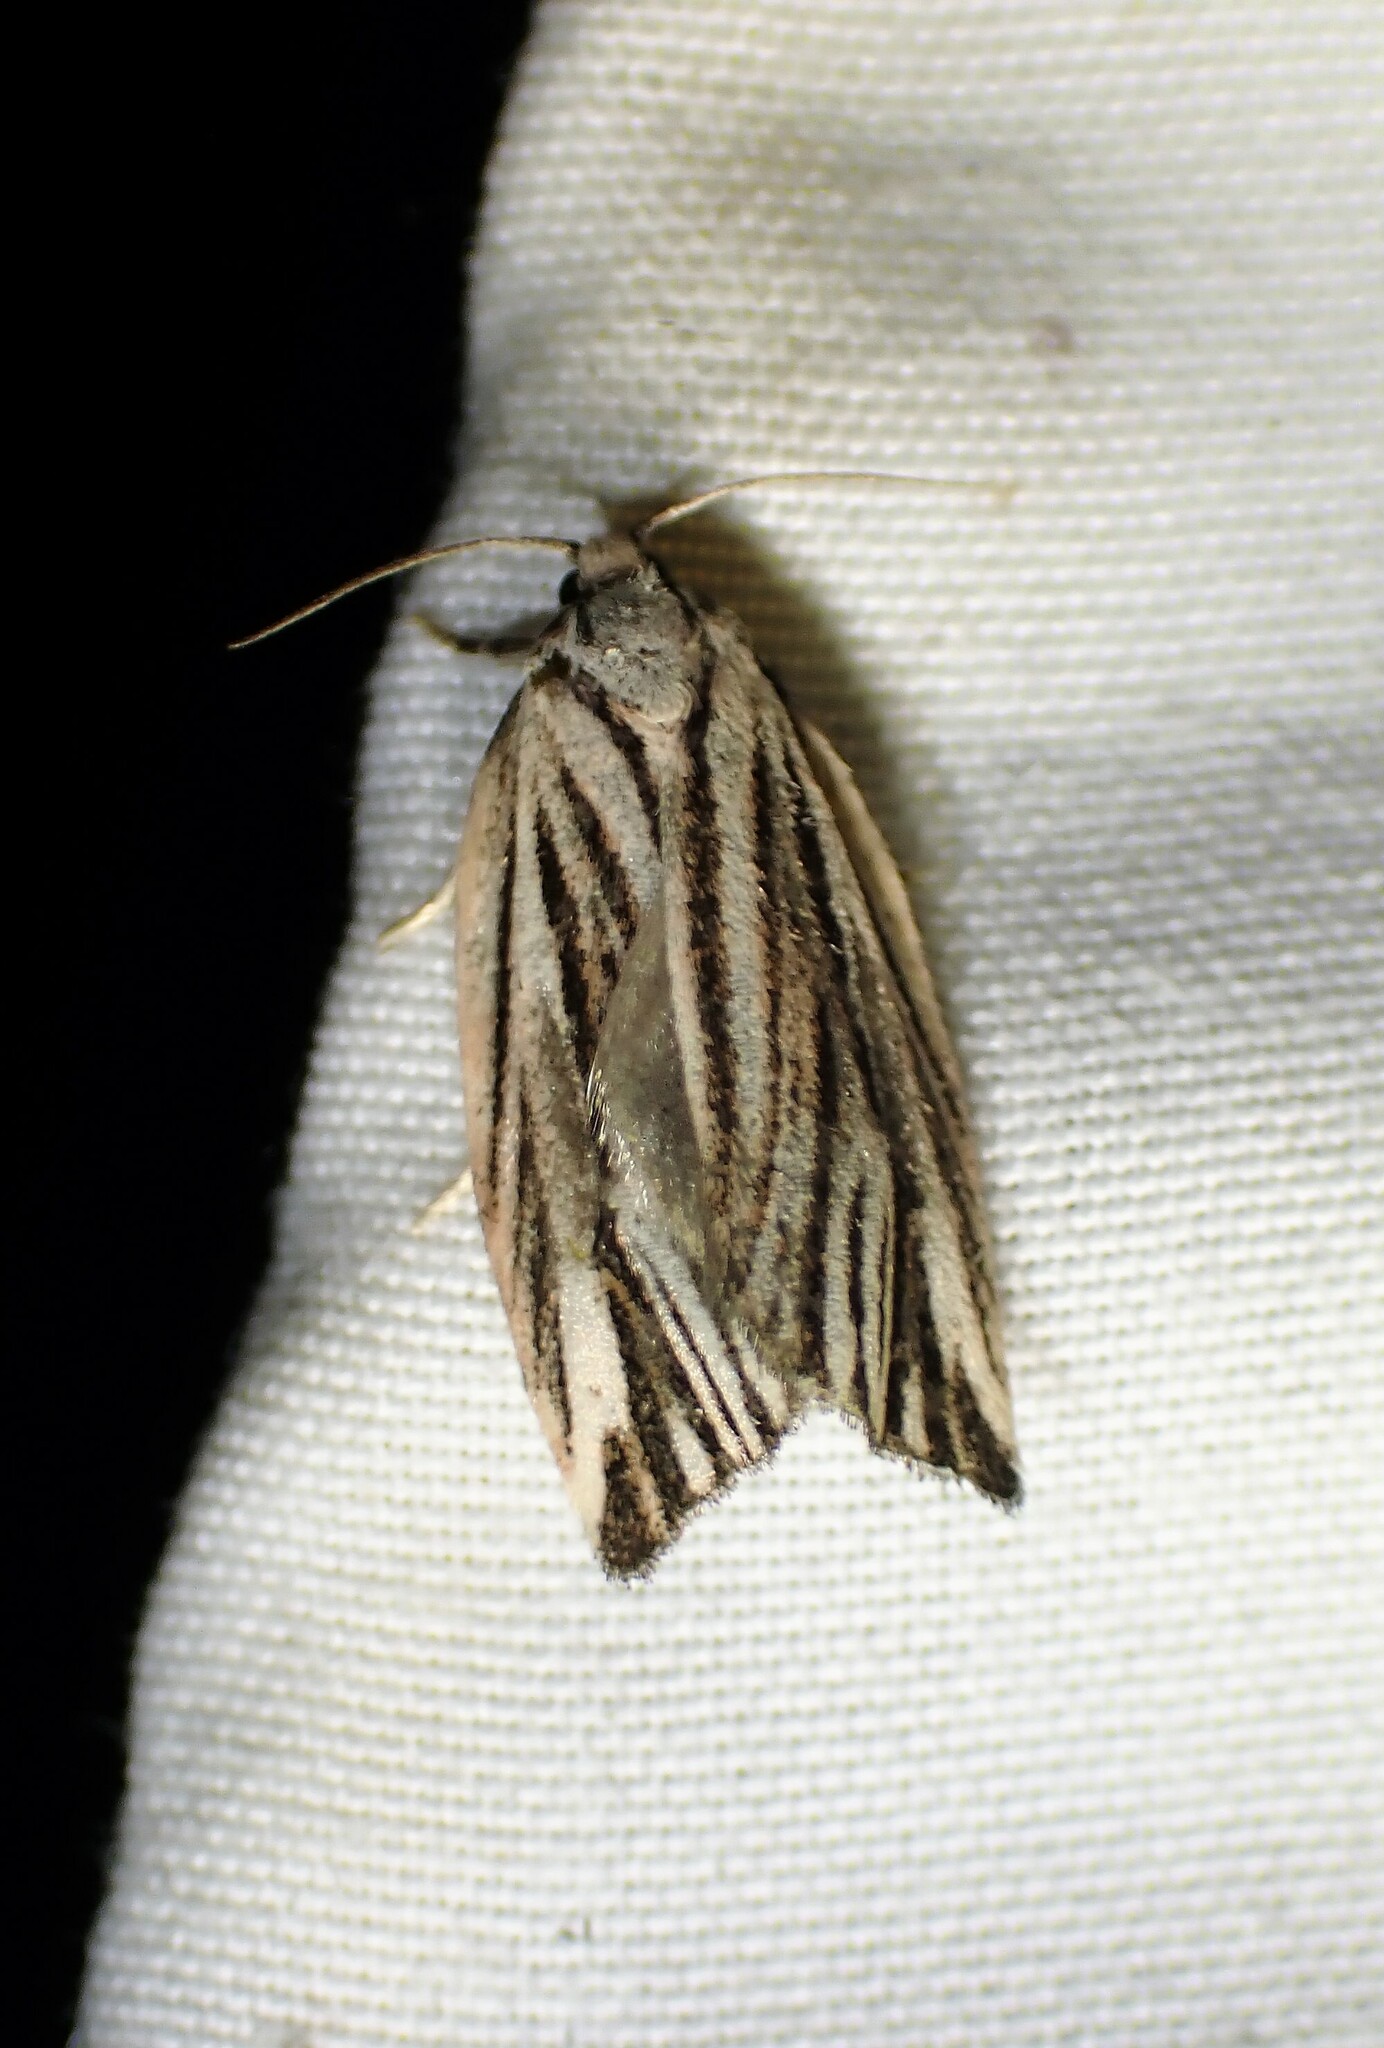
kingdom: Animalia
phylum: Arthropoda
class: Insecta
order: Lepidoptera
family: Tortricidae
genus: Archips
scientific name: Archips strianus
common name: Striated tortrix moth
